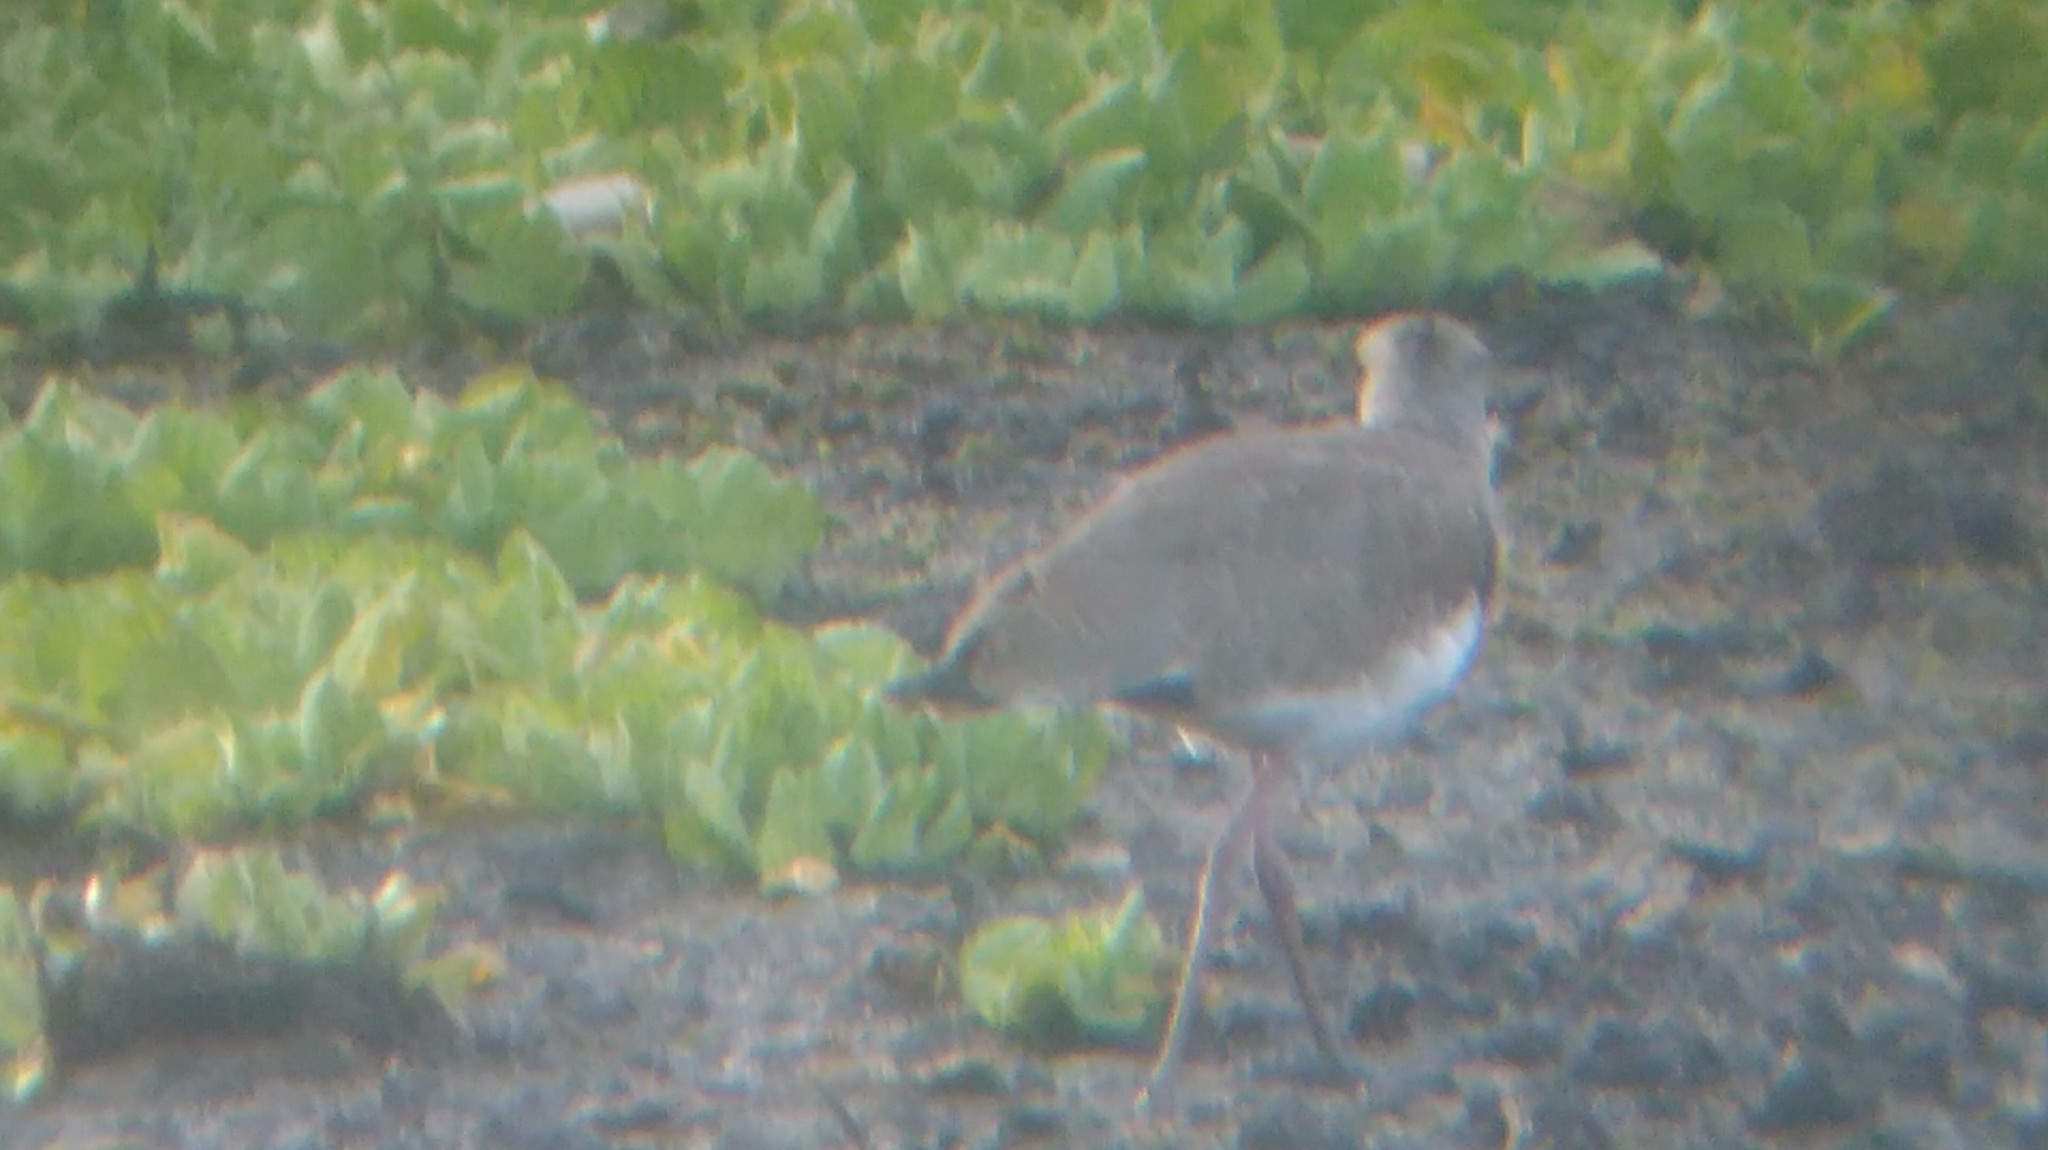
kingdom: Animalia
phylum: Chordata
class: Aves
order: Charadriiformes
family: Charadriidae
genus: Vanellus
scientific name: Vanellus chilensis
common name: Southern lapwing
